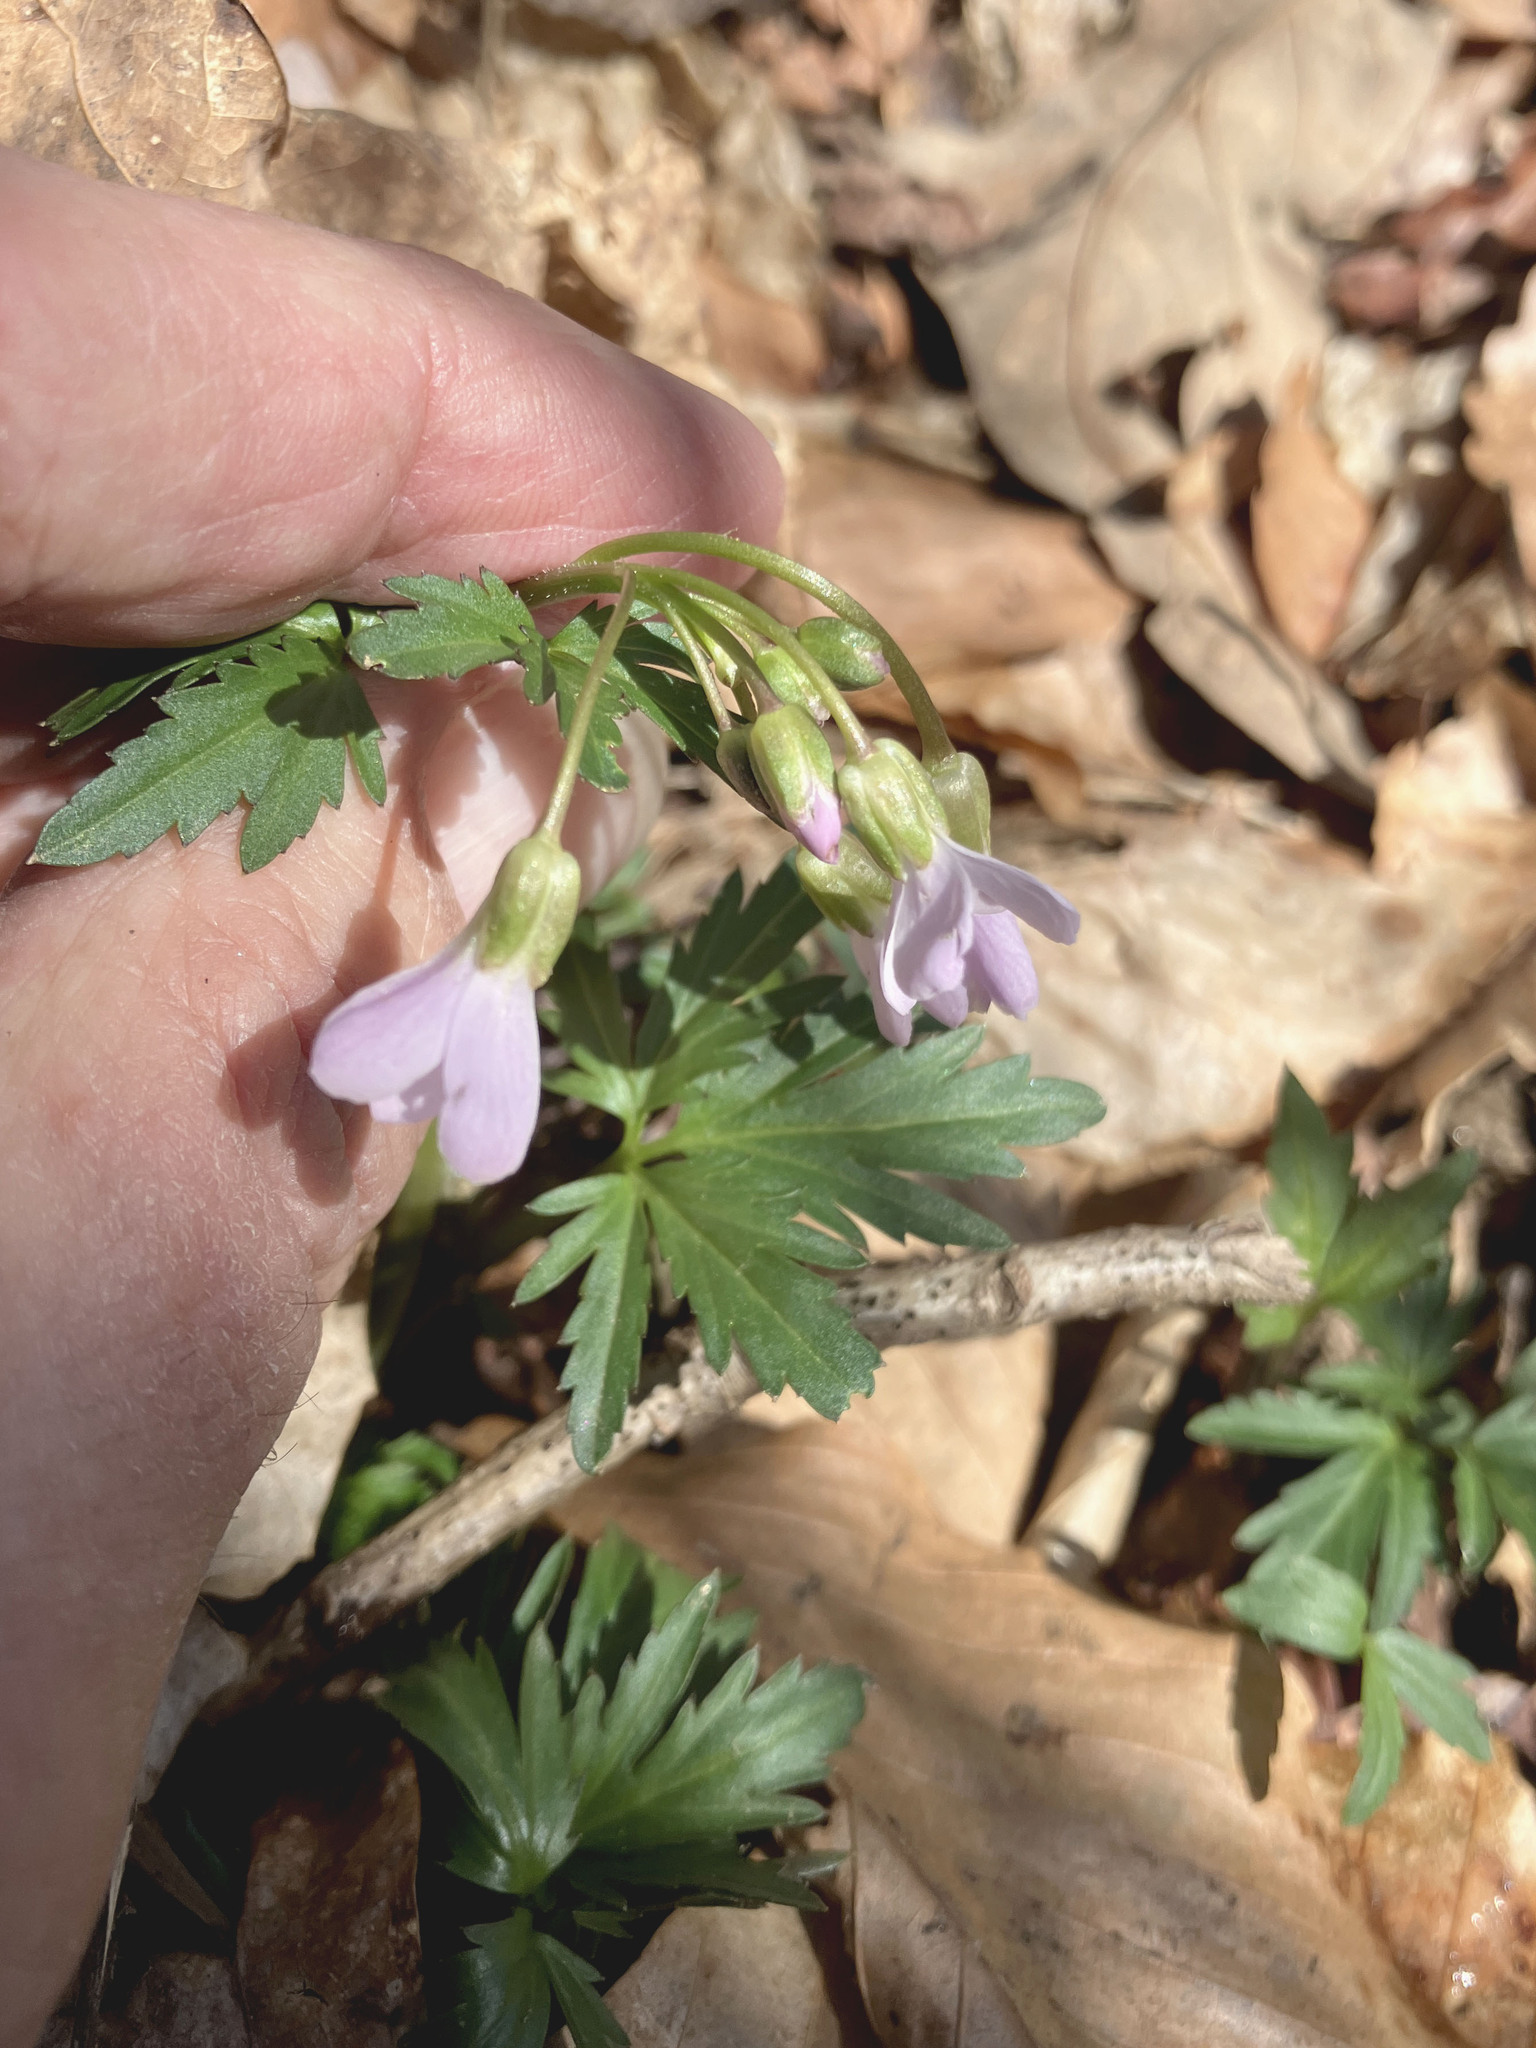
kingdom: Plantae
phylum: Tracheophyta
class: Magnoliopsida
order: Brassicales
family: Brassicaceae
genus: Cardamine
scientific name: Cardamine concatenata
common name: Cut-leaf toothcup
